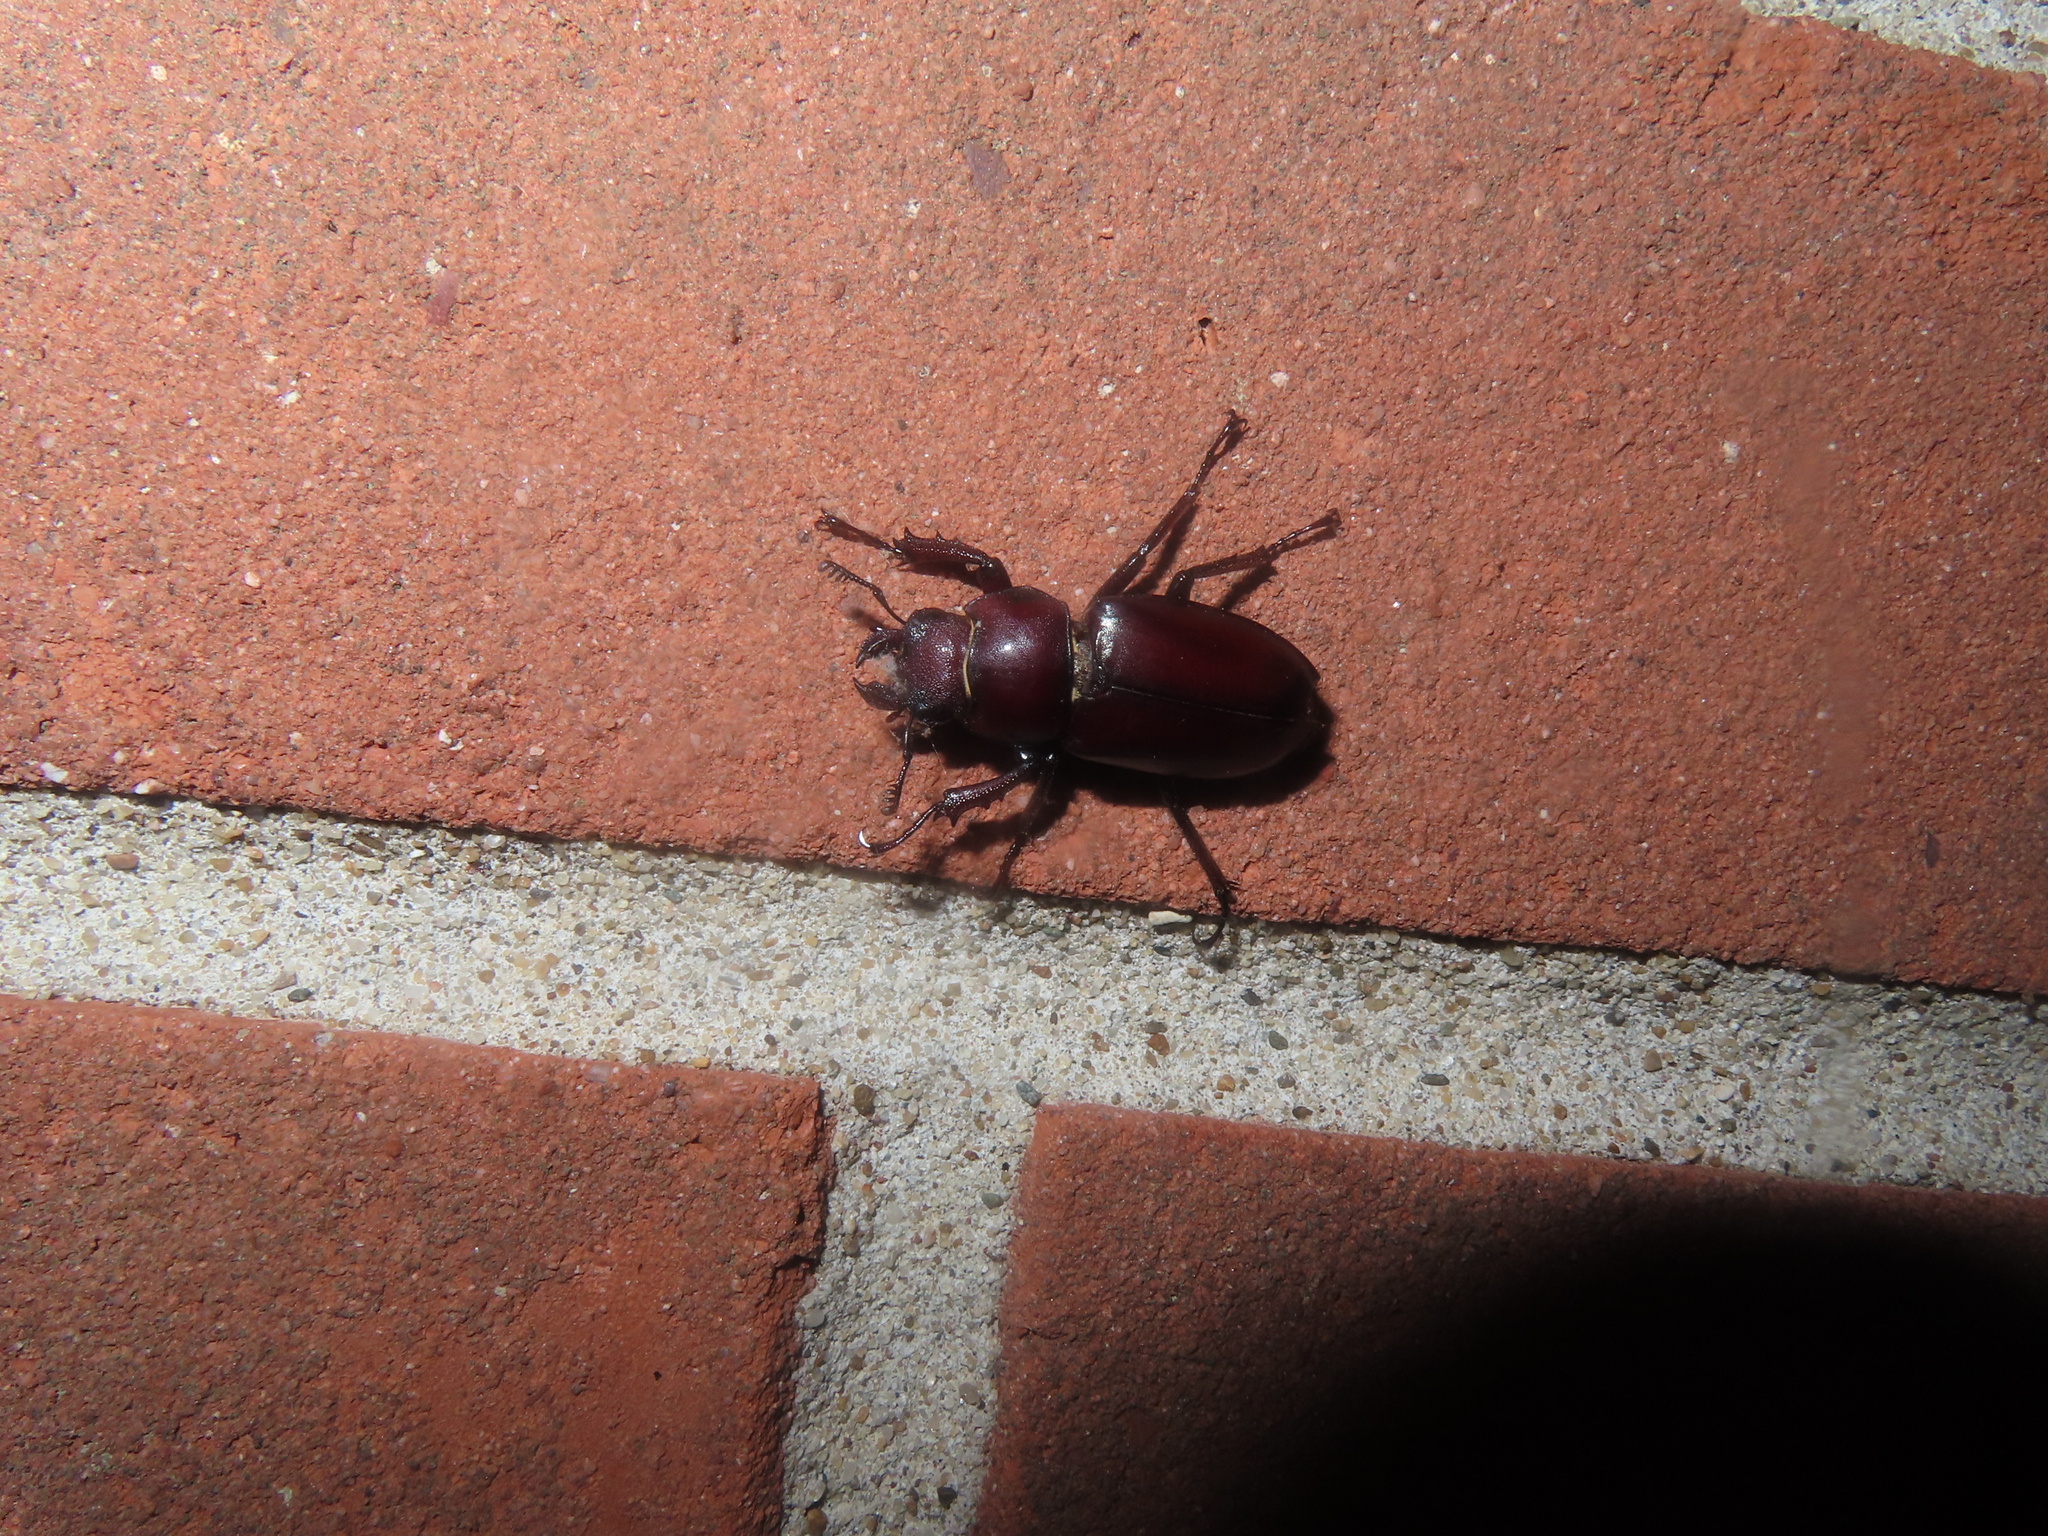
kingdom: Animalia
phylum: Arthropoda
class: Insecta
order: Coleoptera
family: Lucanidae
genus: Lucanus
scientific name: Lucanus elaphus
